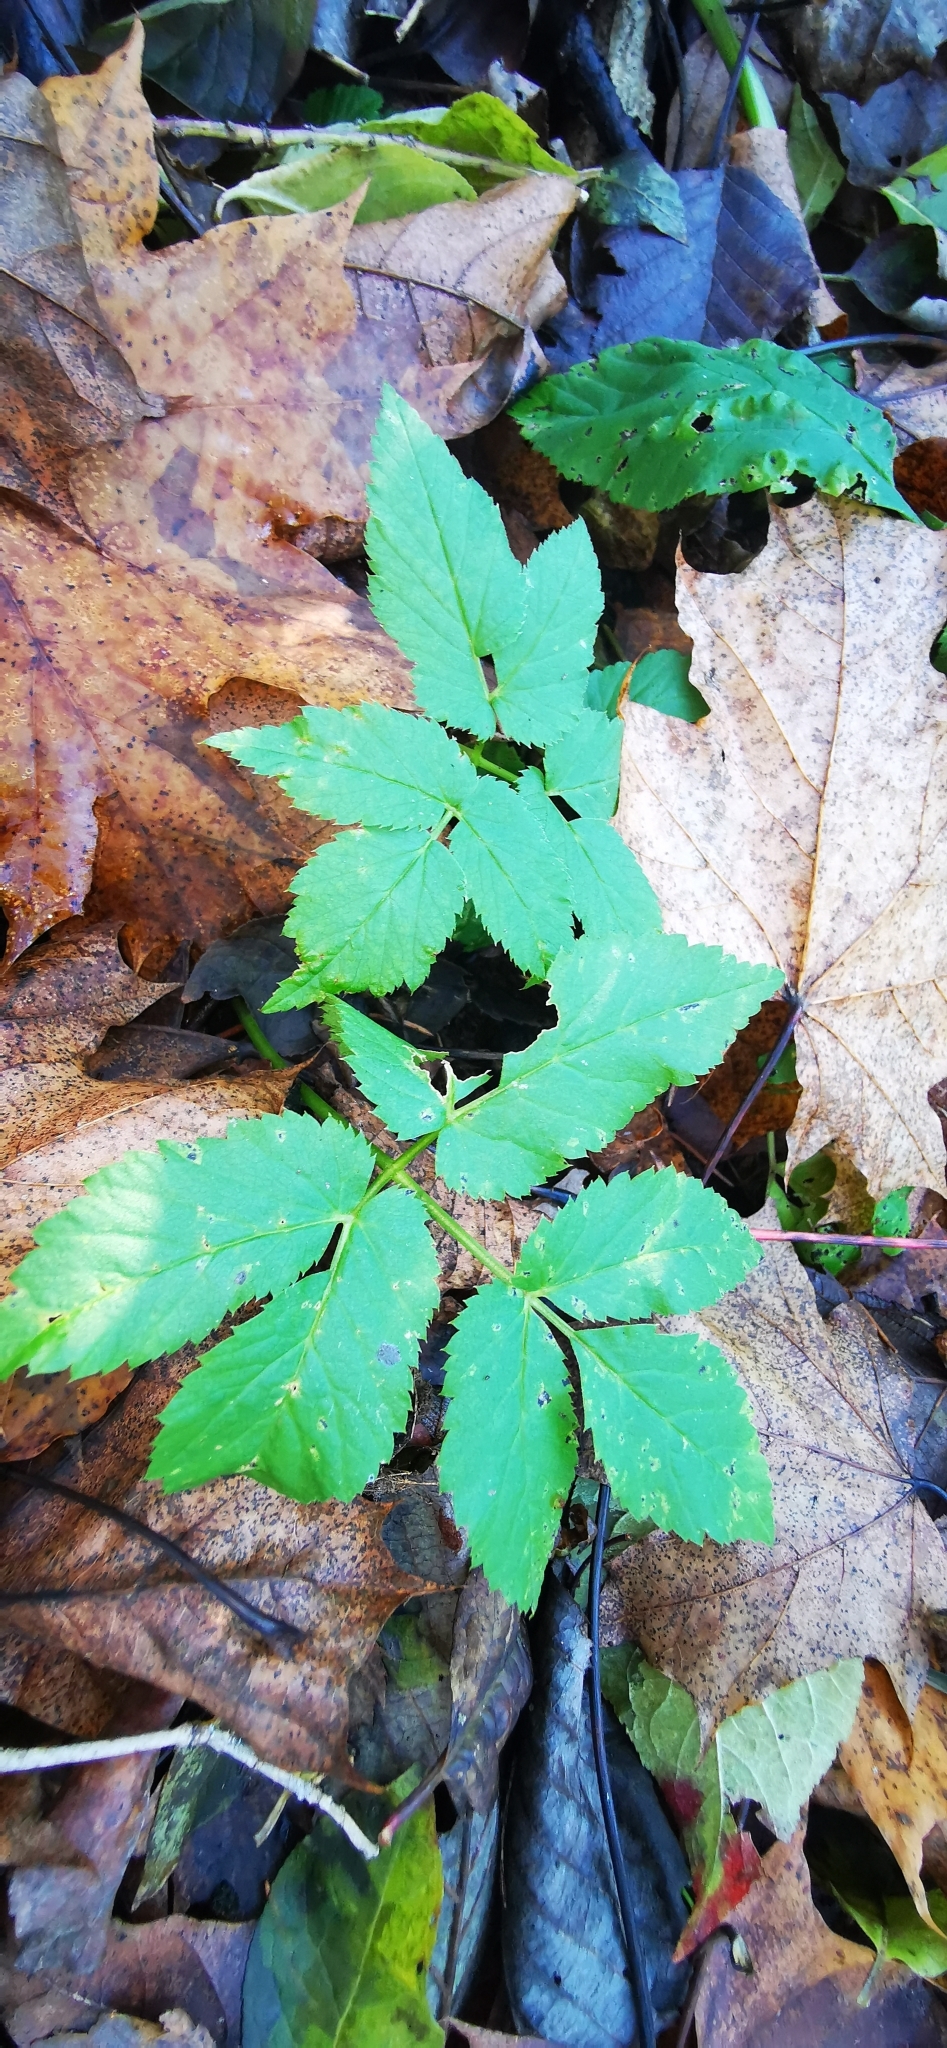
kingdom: Plantae
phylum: Tracheophyta
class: Magnoliopsida
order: Apiales
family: Apiaceae
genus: Aegopodium
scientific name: Aegopodium podagraria
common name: Ground-elder
